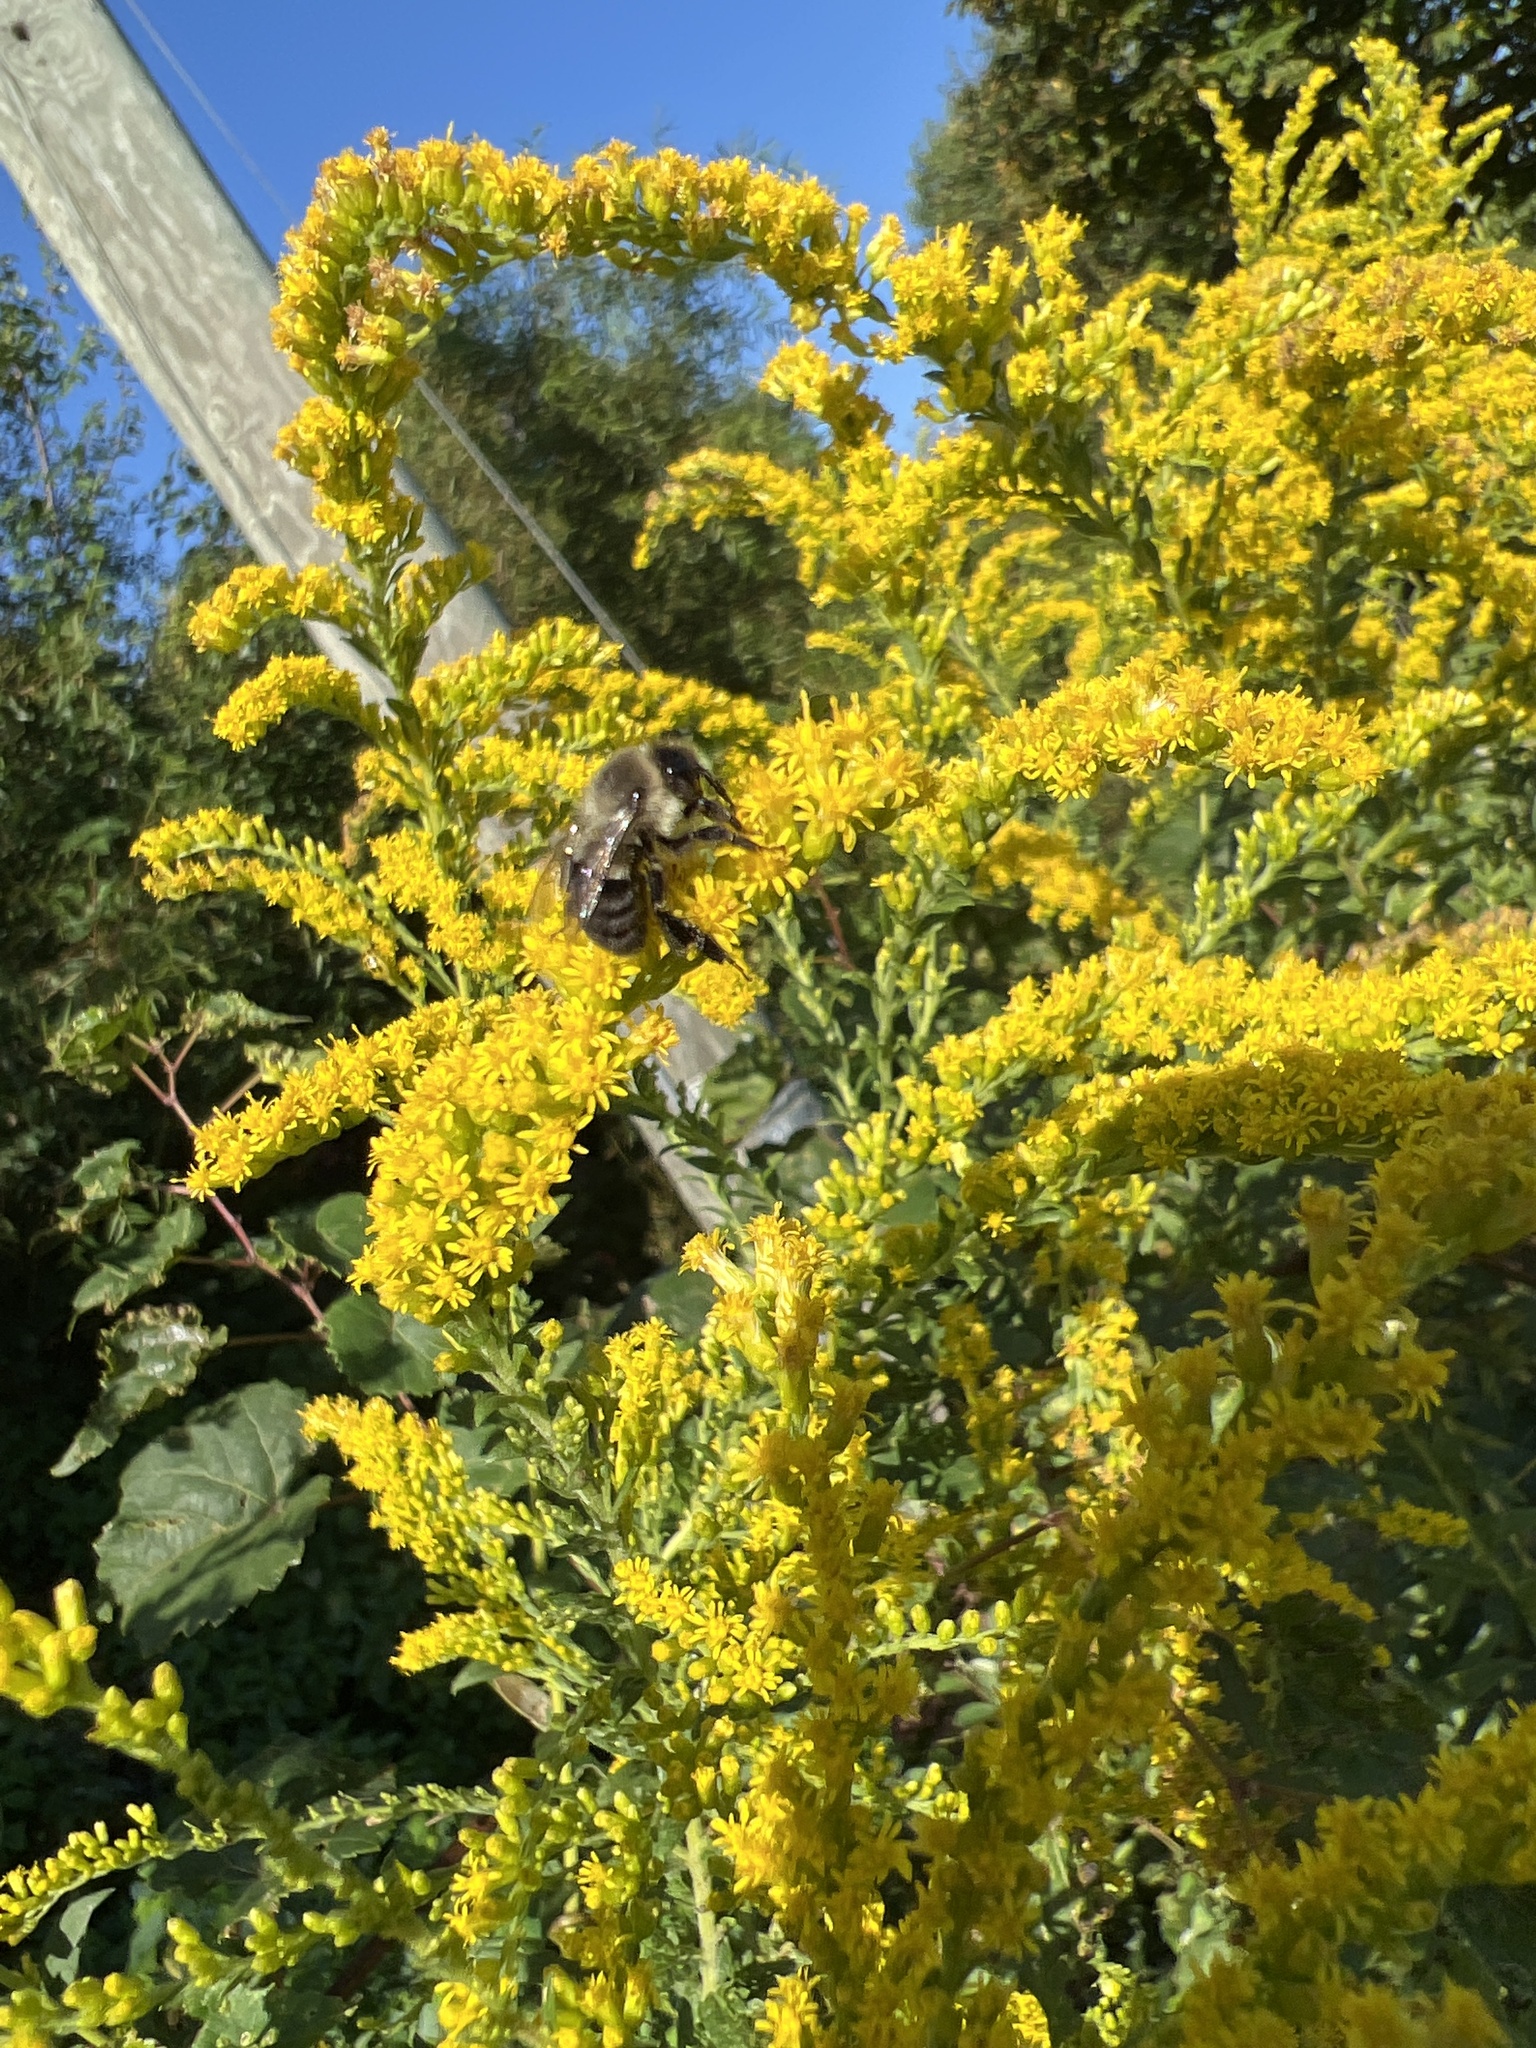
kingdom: Animalia
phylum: Arthropoda
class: Insecta
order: Hymenoptera
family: Apidae
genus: Bombus
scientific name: Bombus impatiens
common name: Common eastern bumble bee
